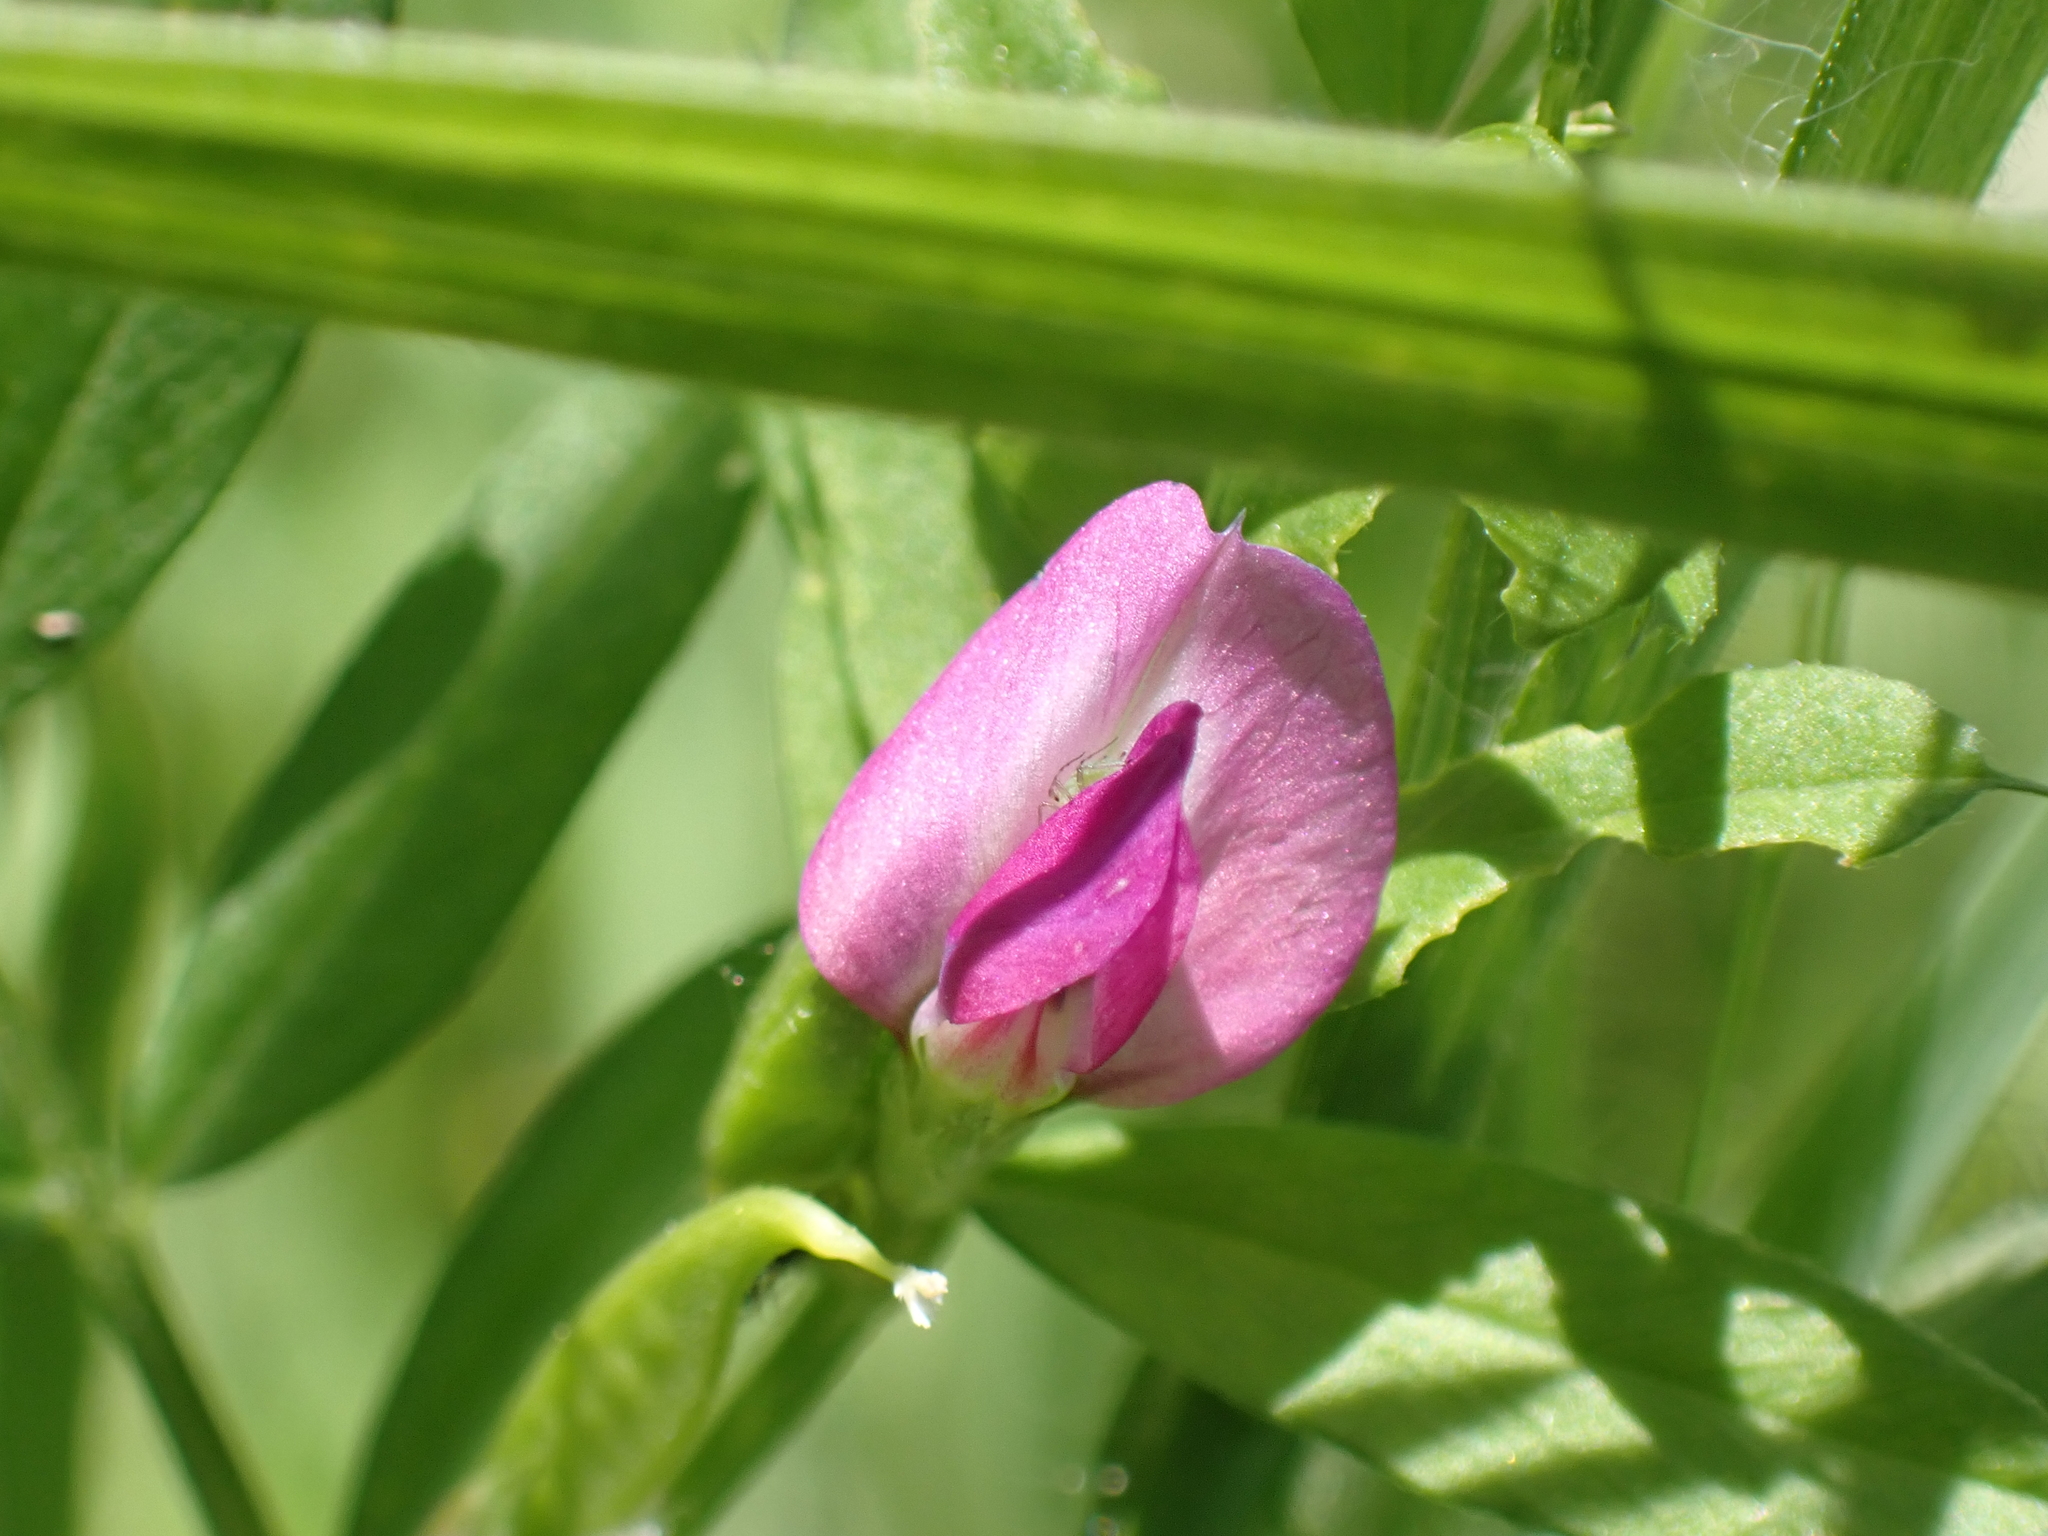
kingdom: Plantae
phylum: Tracheophyta
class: Magnoliopsida
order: Fabales
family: Fabaceae
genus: Vicia
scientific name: Vicia sativa
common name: Garden vetch
